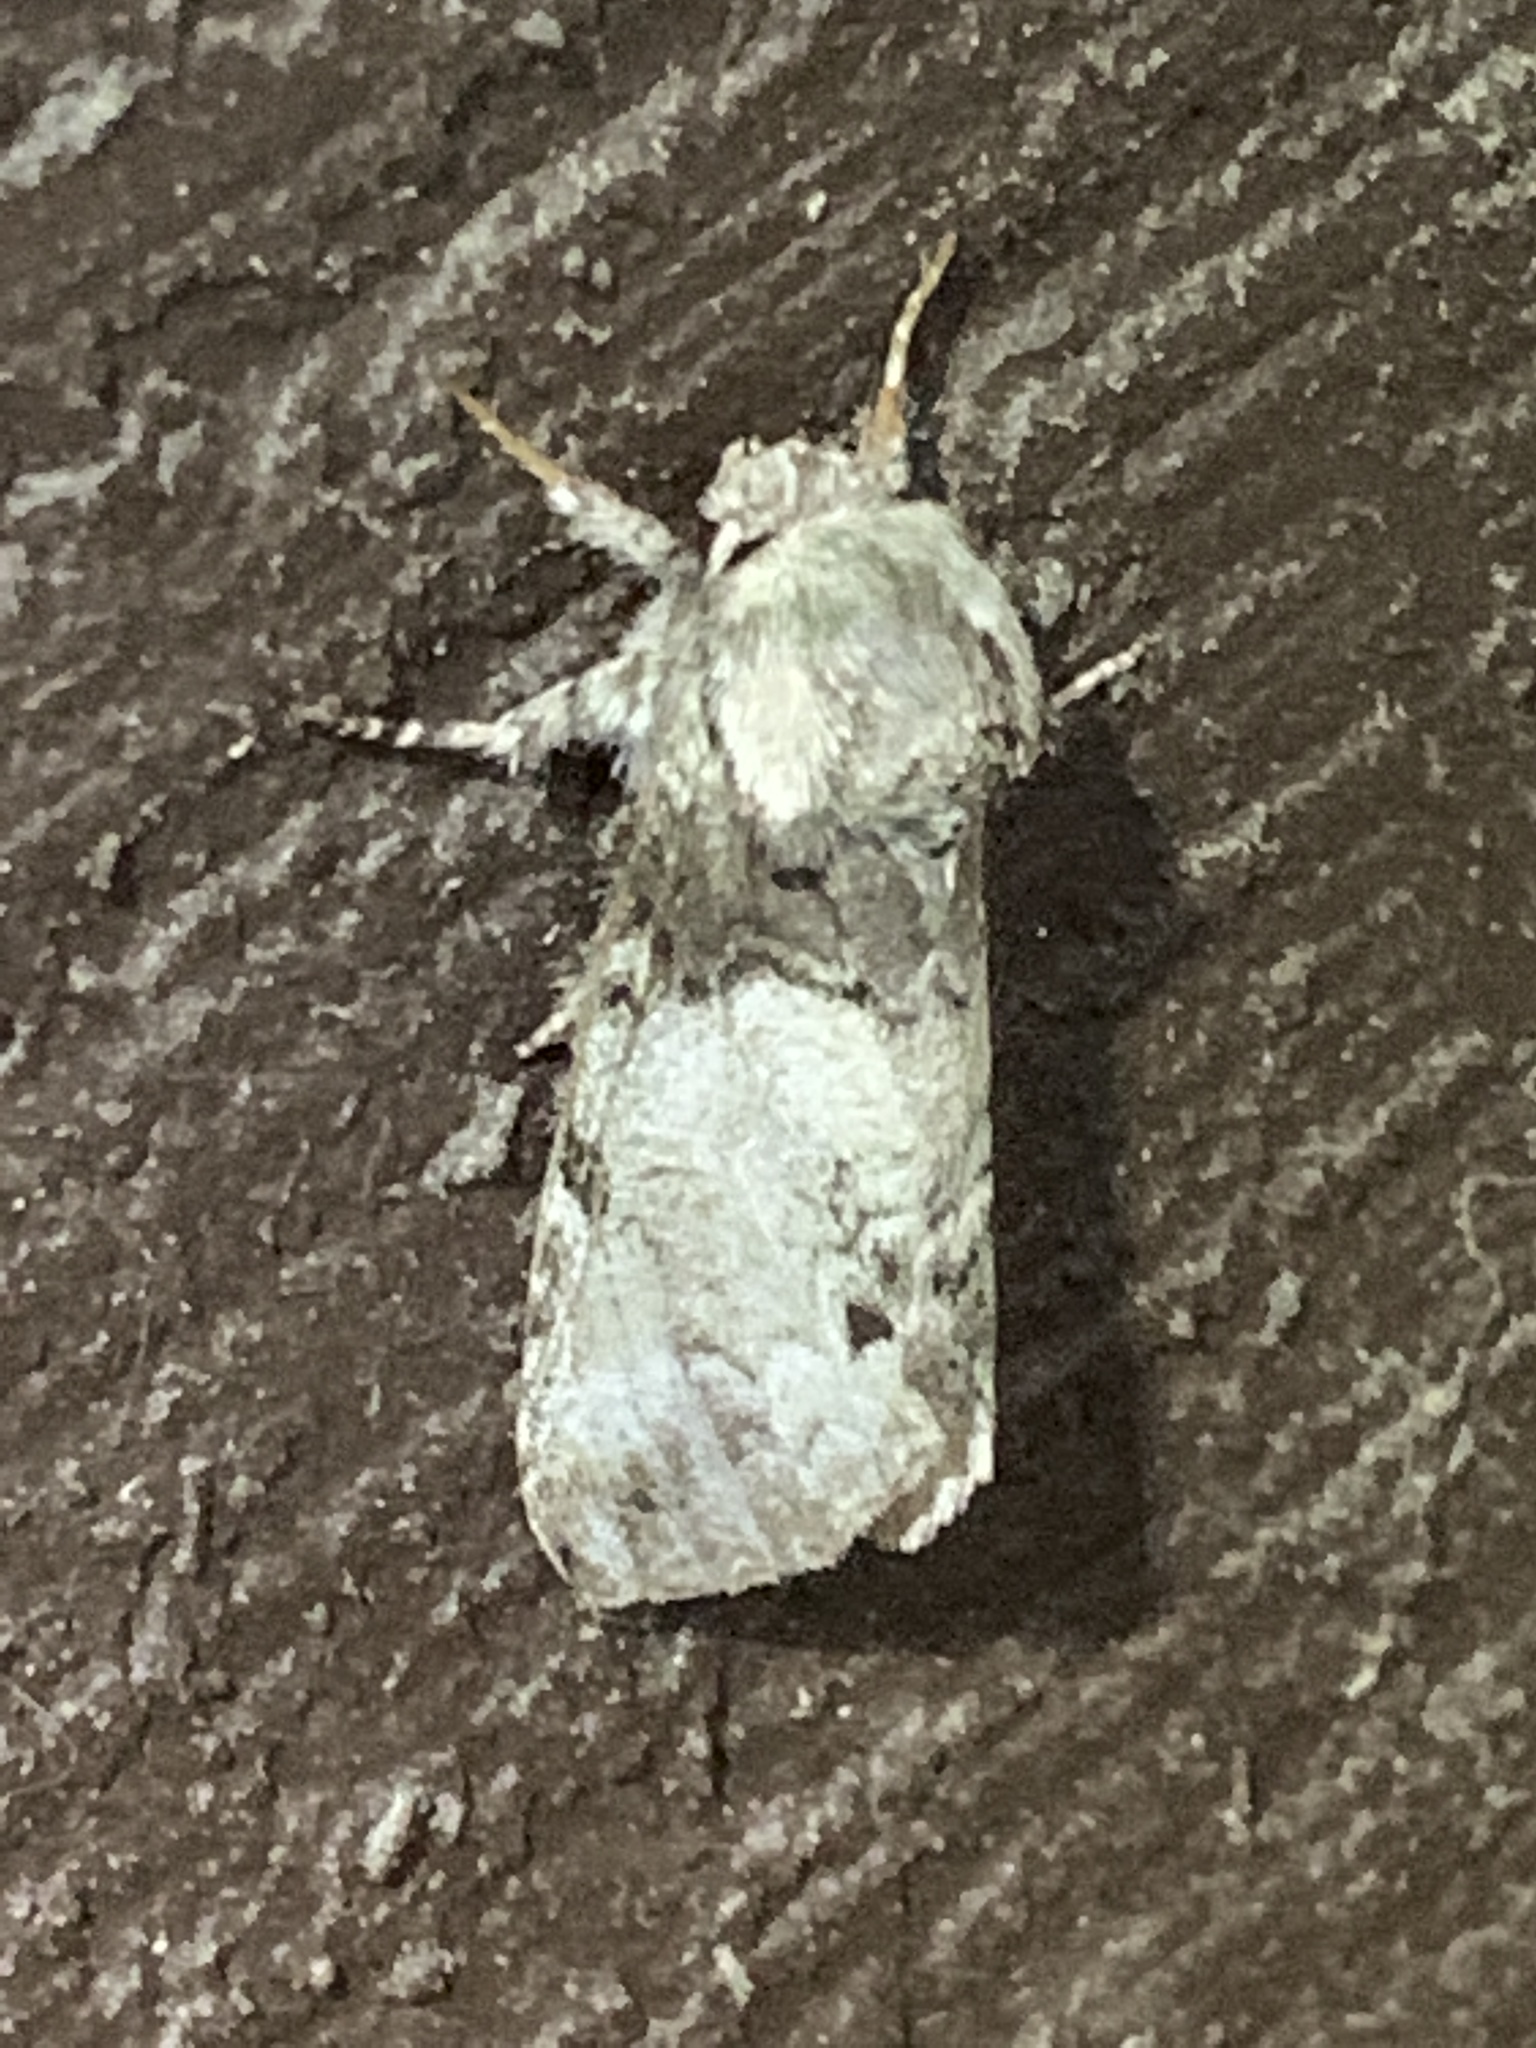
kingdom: Animalia
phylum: Arthropoda
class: Insecta
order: Lepidoptera
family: Notodontidae
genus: Macrurocampa
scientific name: Macrurocampa marthesia
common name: Mottled prominent
